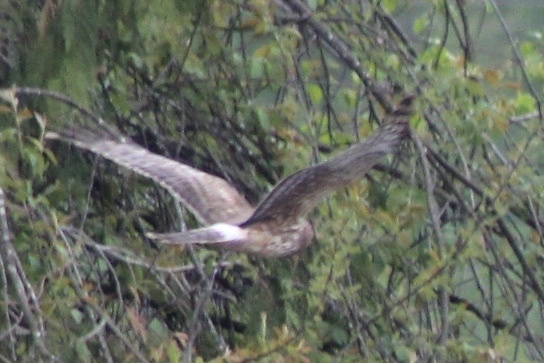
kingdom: Animalia
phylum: Chordata
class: Aves
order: Accipitriformes
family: Accipitridae
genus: Circus
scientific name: Circus cyaneus
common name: Hen harrier
